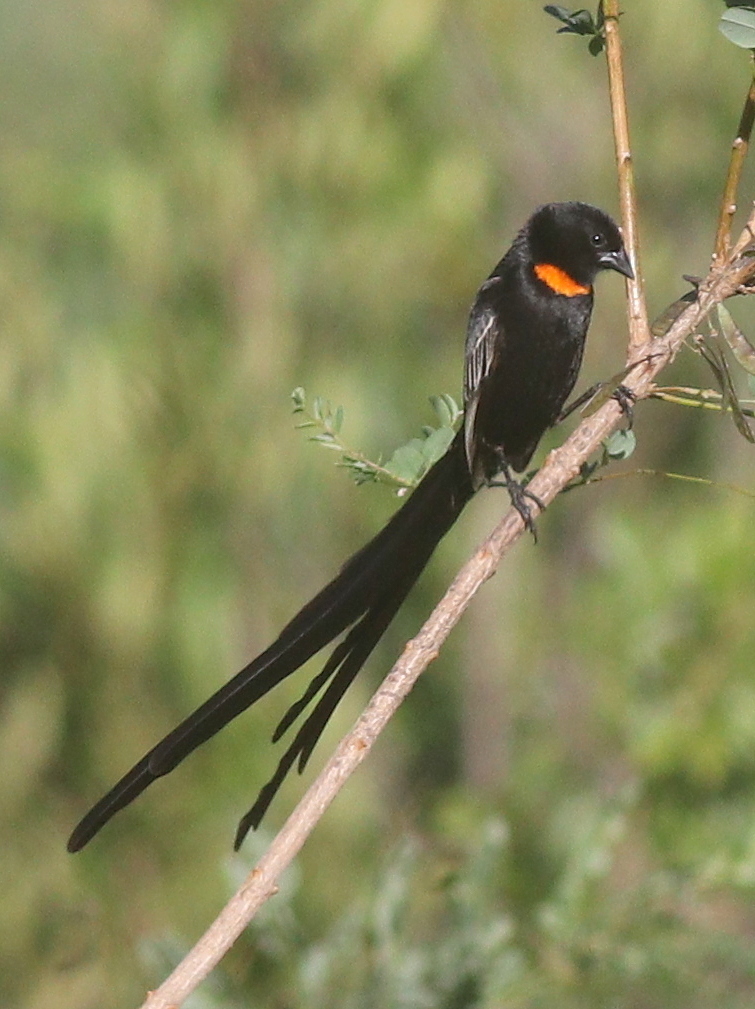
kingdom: Animalia
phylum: Chordata
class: Aves
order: Passeriformes
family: Ploceidae
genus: Euplectes
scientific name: Euplectes ardens
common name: Red-collared widowbird
